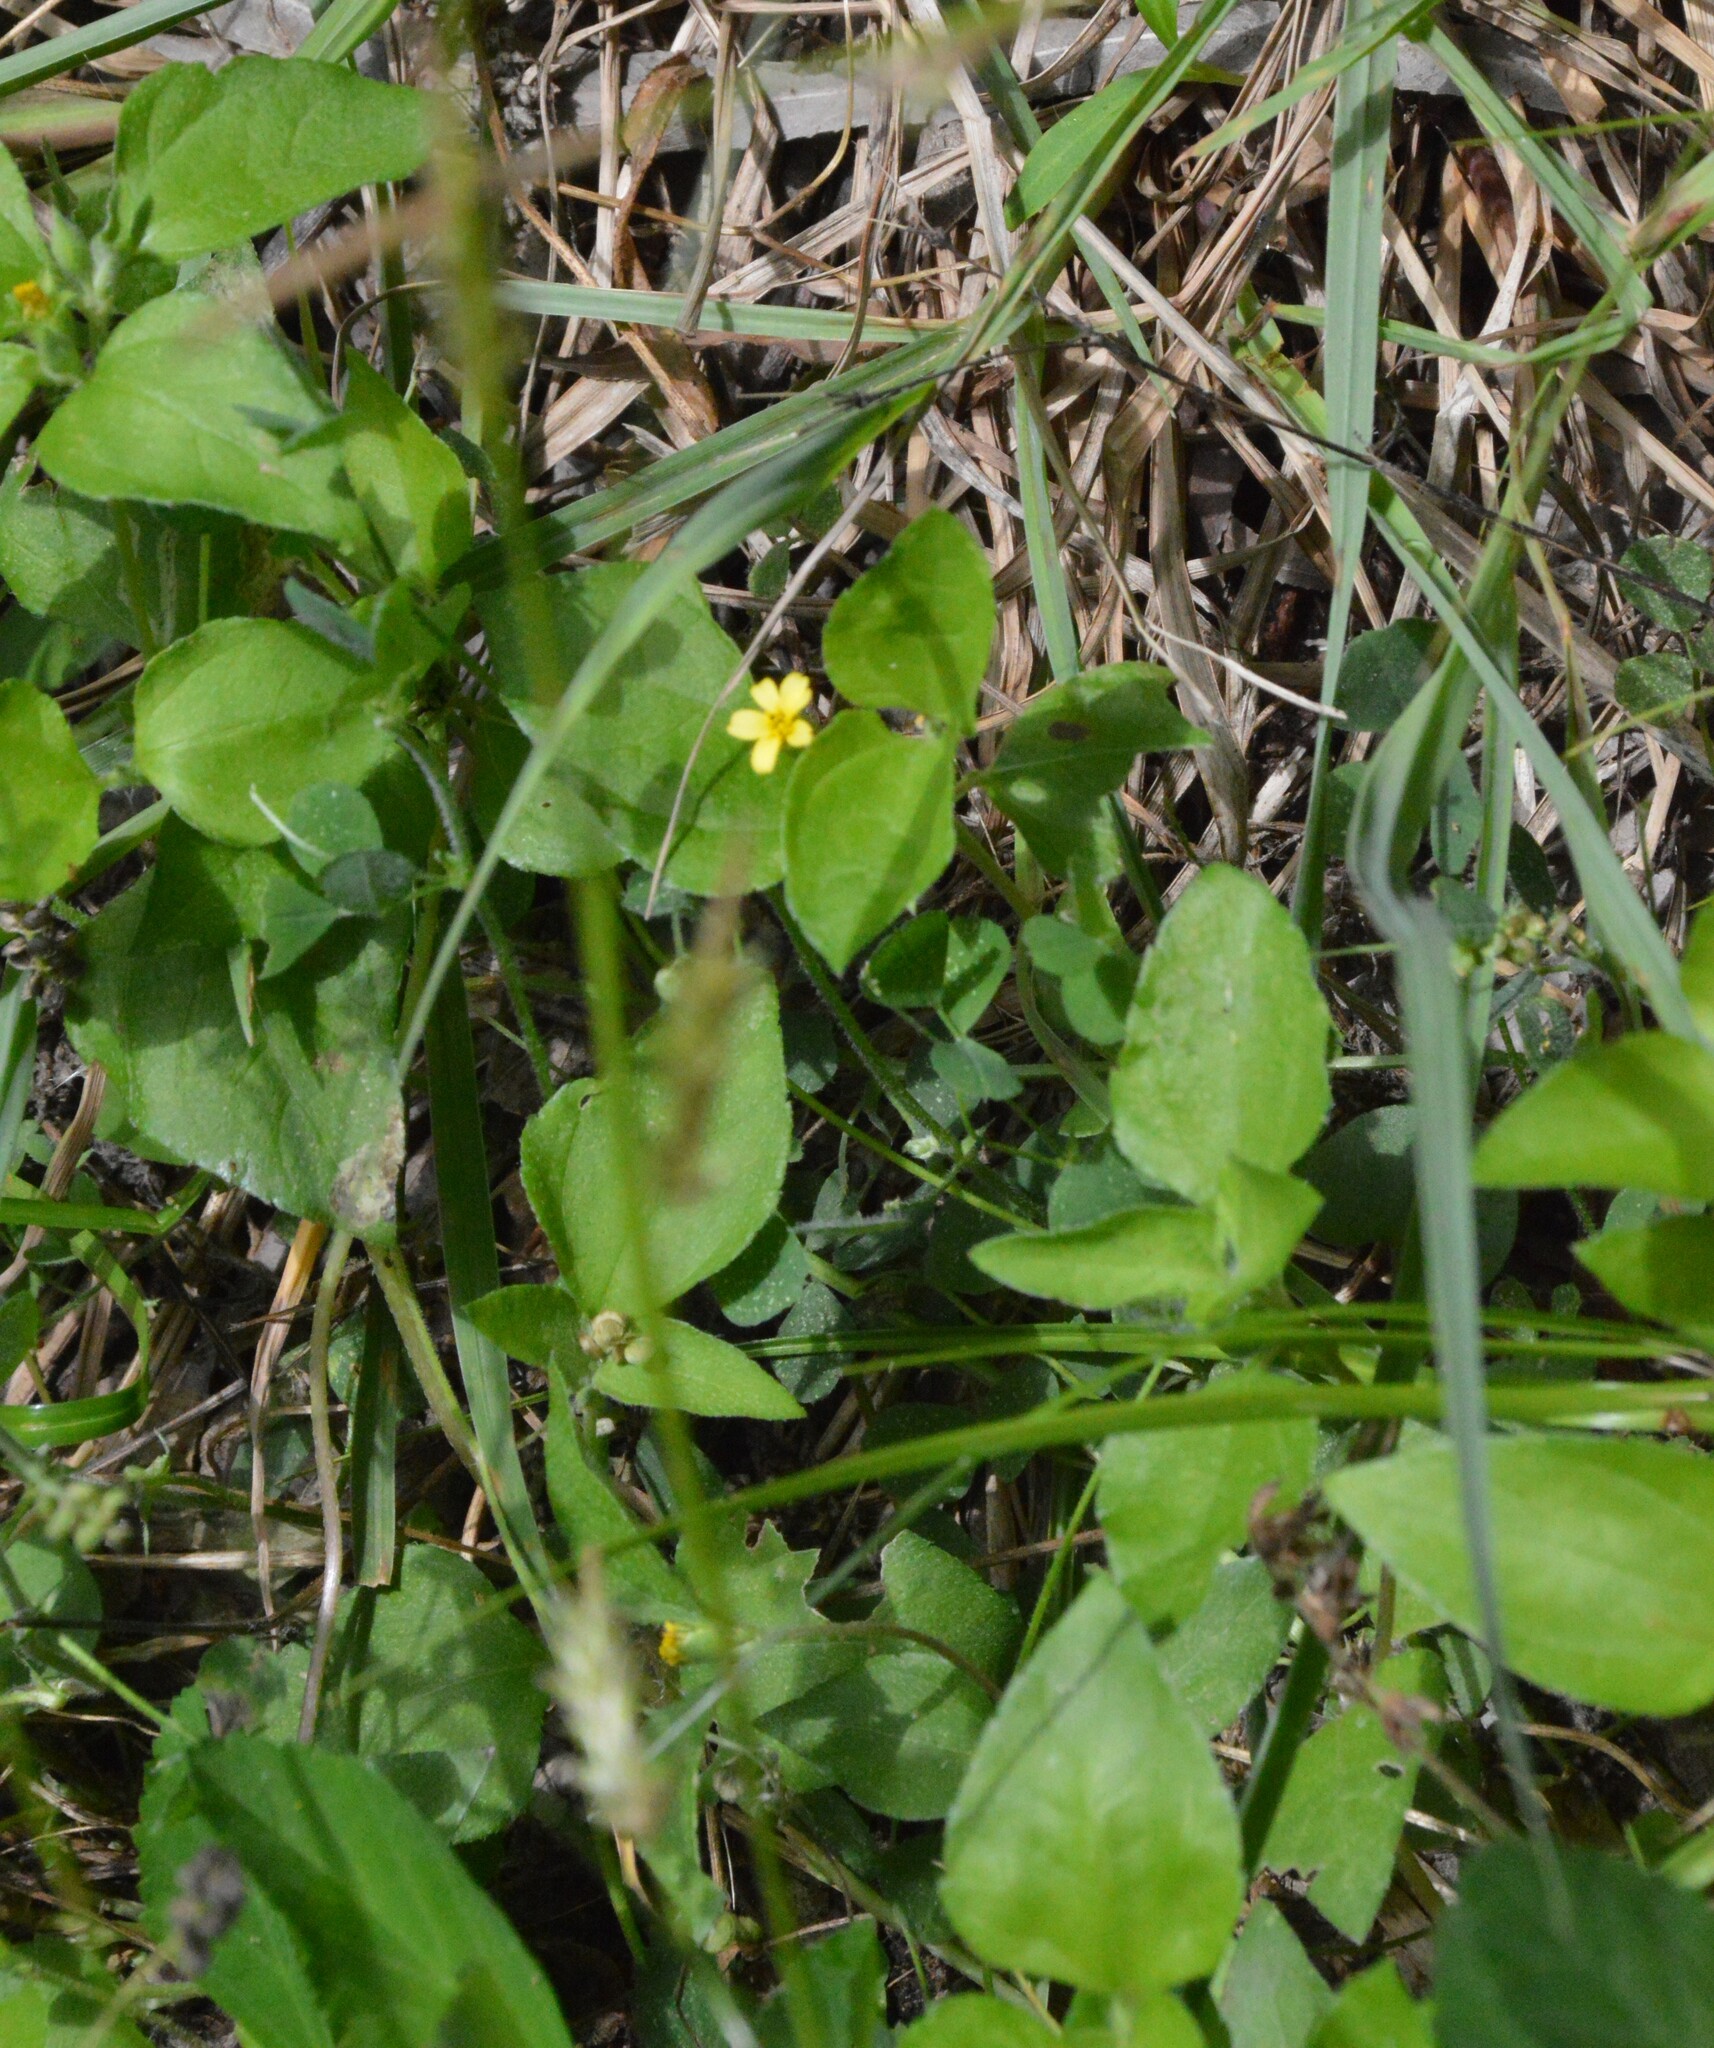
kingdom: Plantae
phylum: Tracheophyta
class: Magnoliopsida
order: Asterales
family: Asteraceae
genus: Calyptocarpus
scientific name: Calyptocarpus vialis
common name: Straggler daisy
